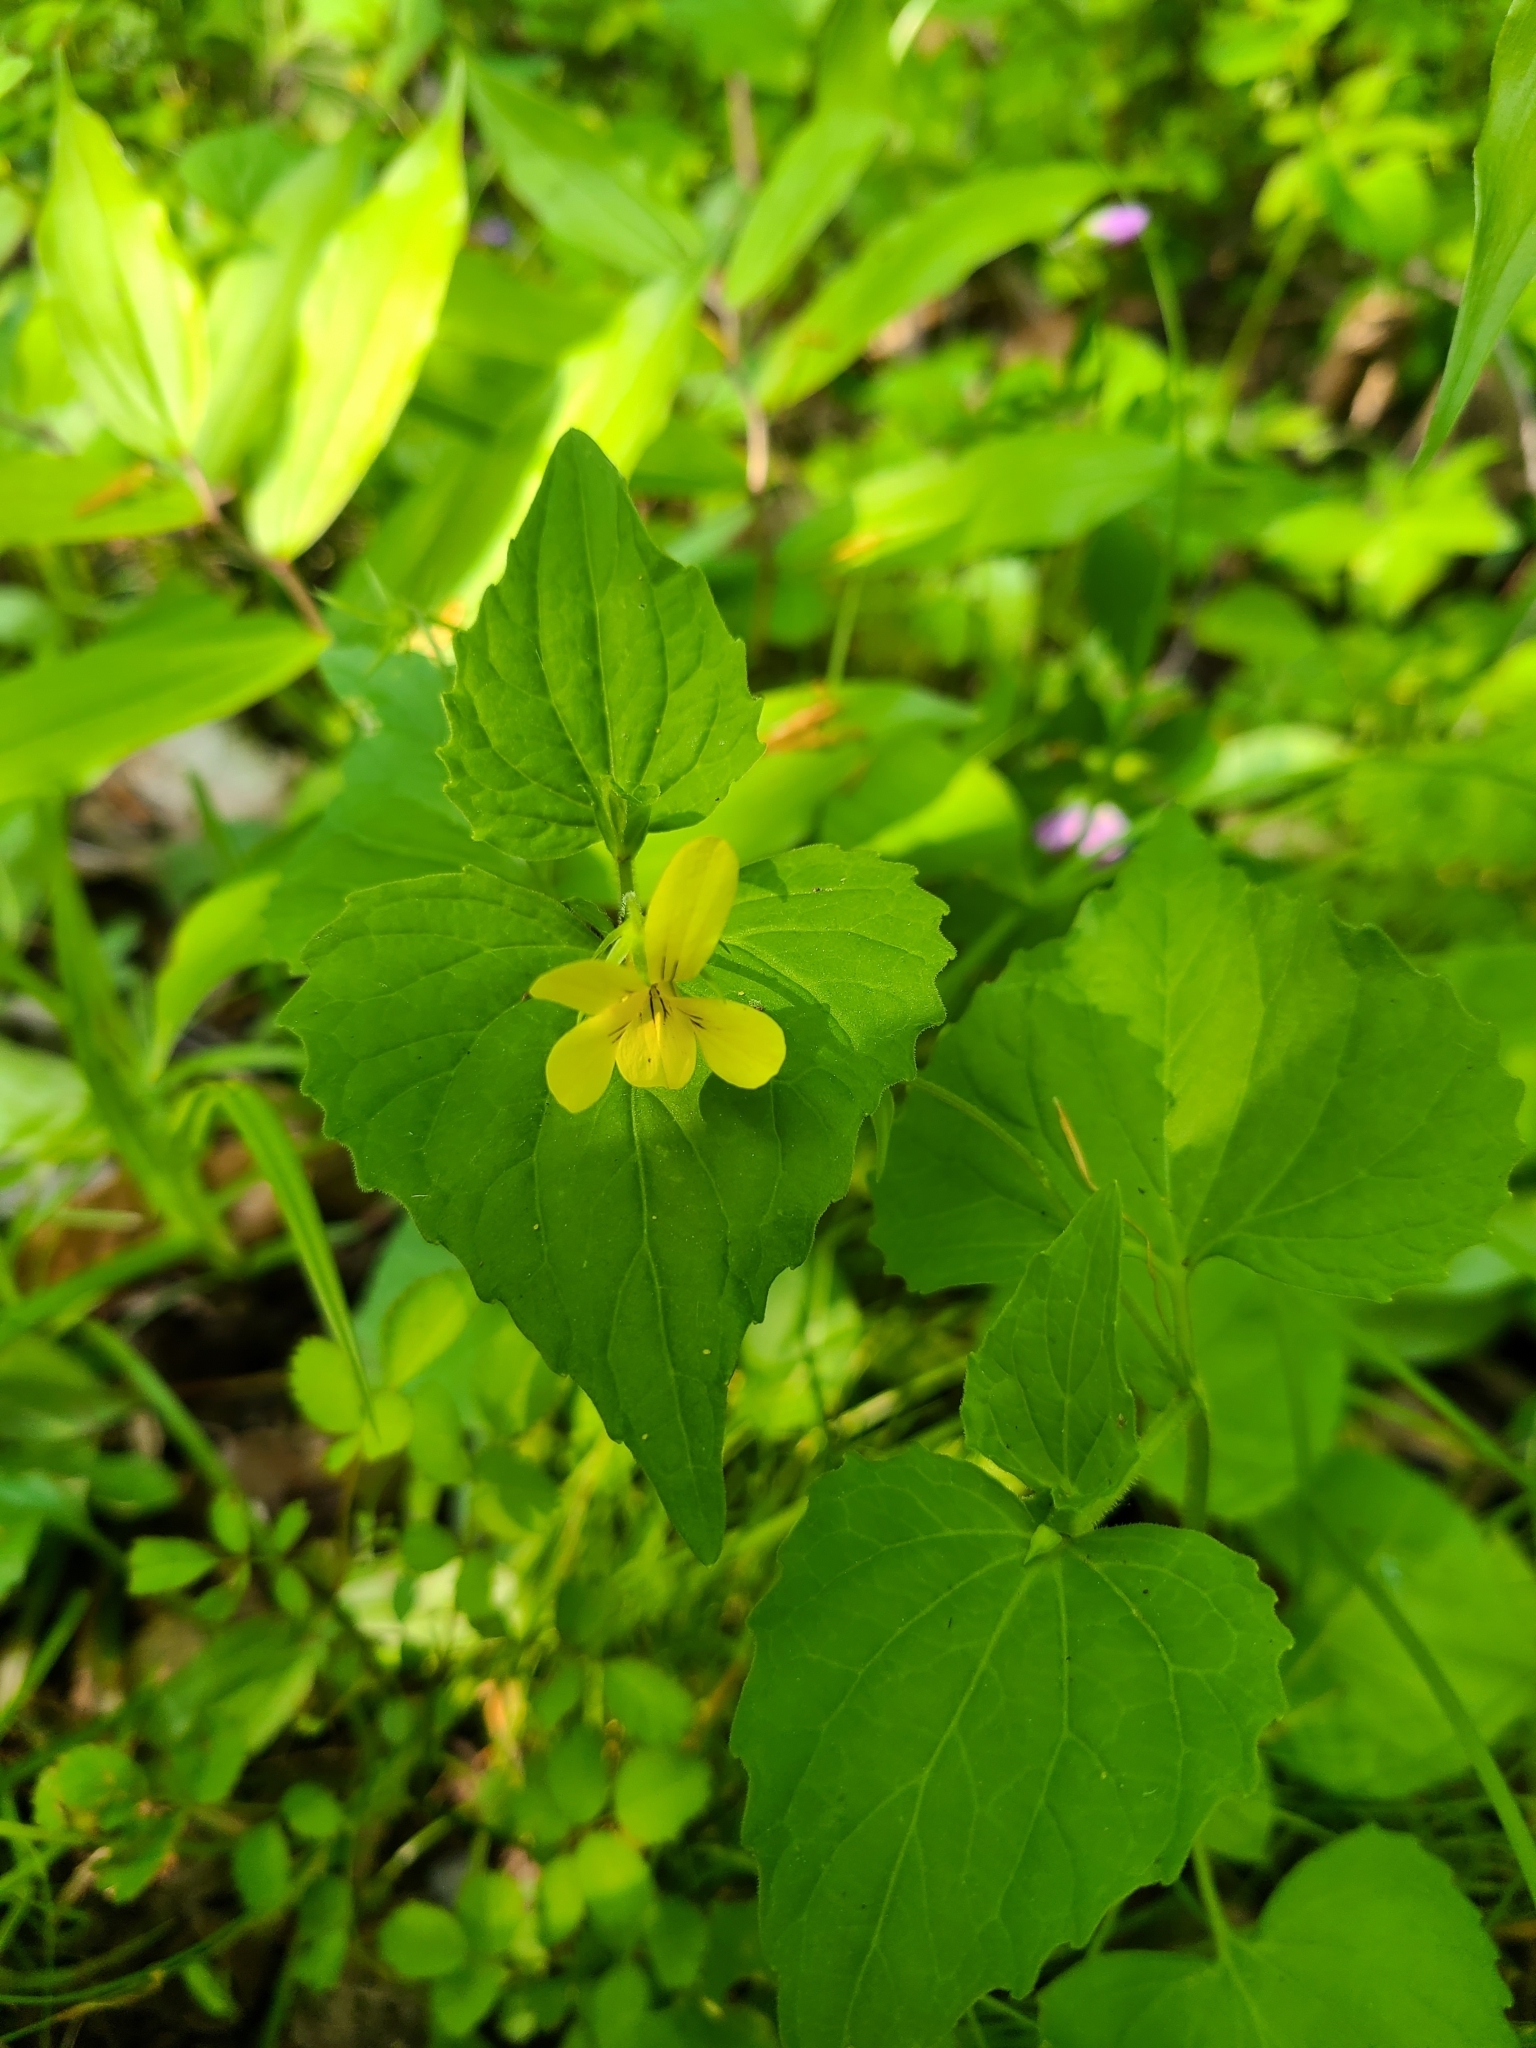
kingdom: Plantae
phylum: Tracheophyta
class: Magnoliopsida
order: Malpighiales
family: Violaceae
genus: Viola
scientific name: Viola eriocarpa
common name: Smooth yellow violet
